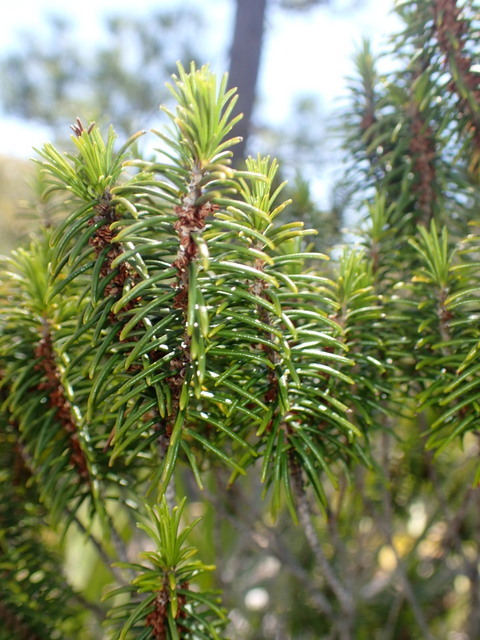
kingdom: Plantae
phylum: Tracheophyta
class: Magnoliopsida
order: Ericales
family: Ericaceae
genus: Ceratiola
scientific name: Ceratiola ericoides
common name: Sandhill-rosemary
